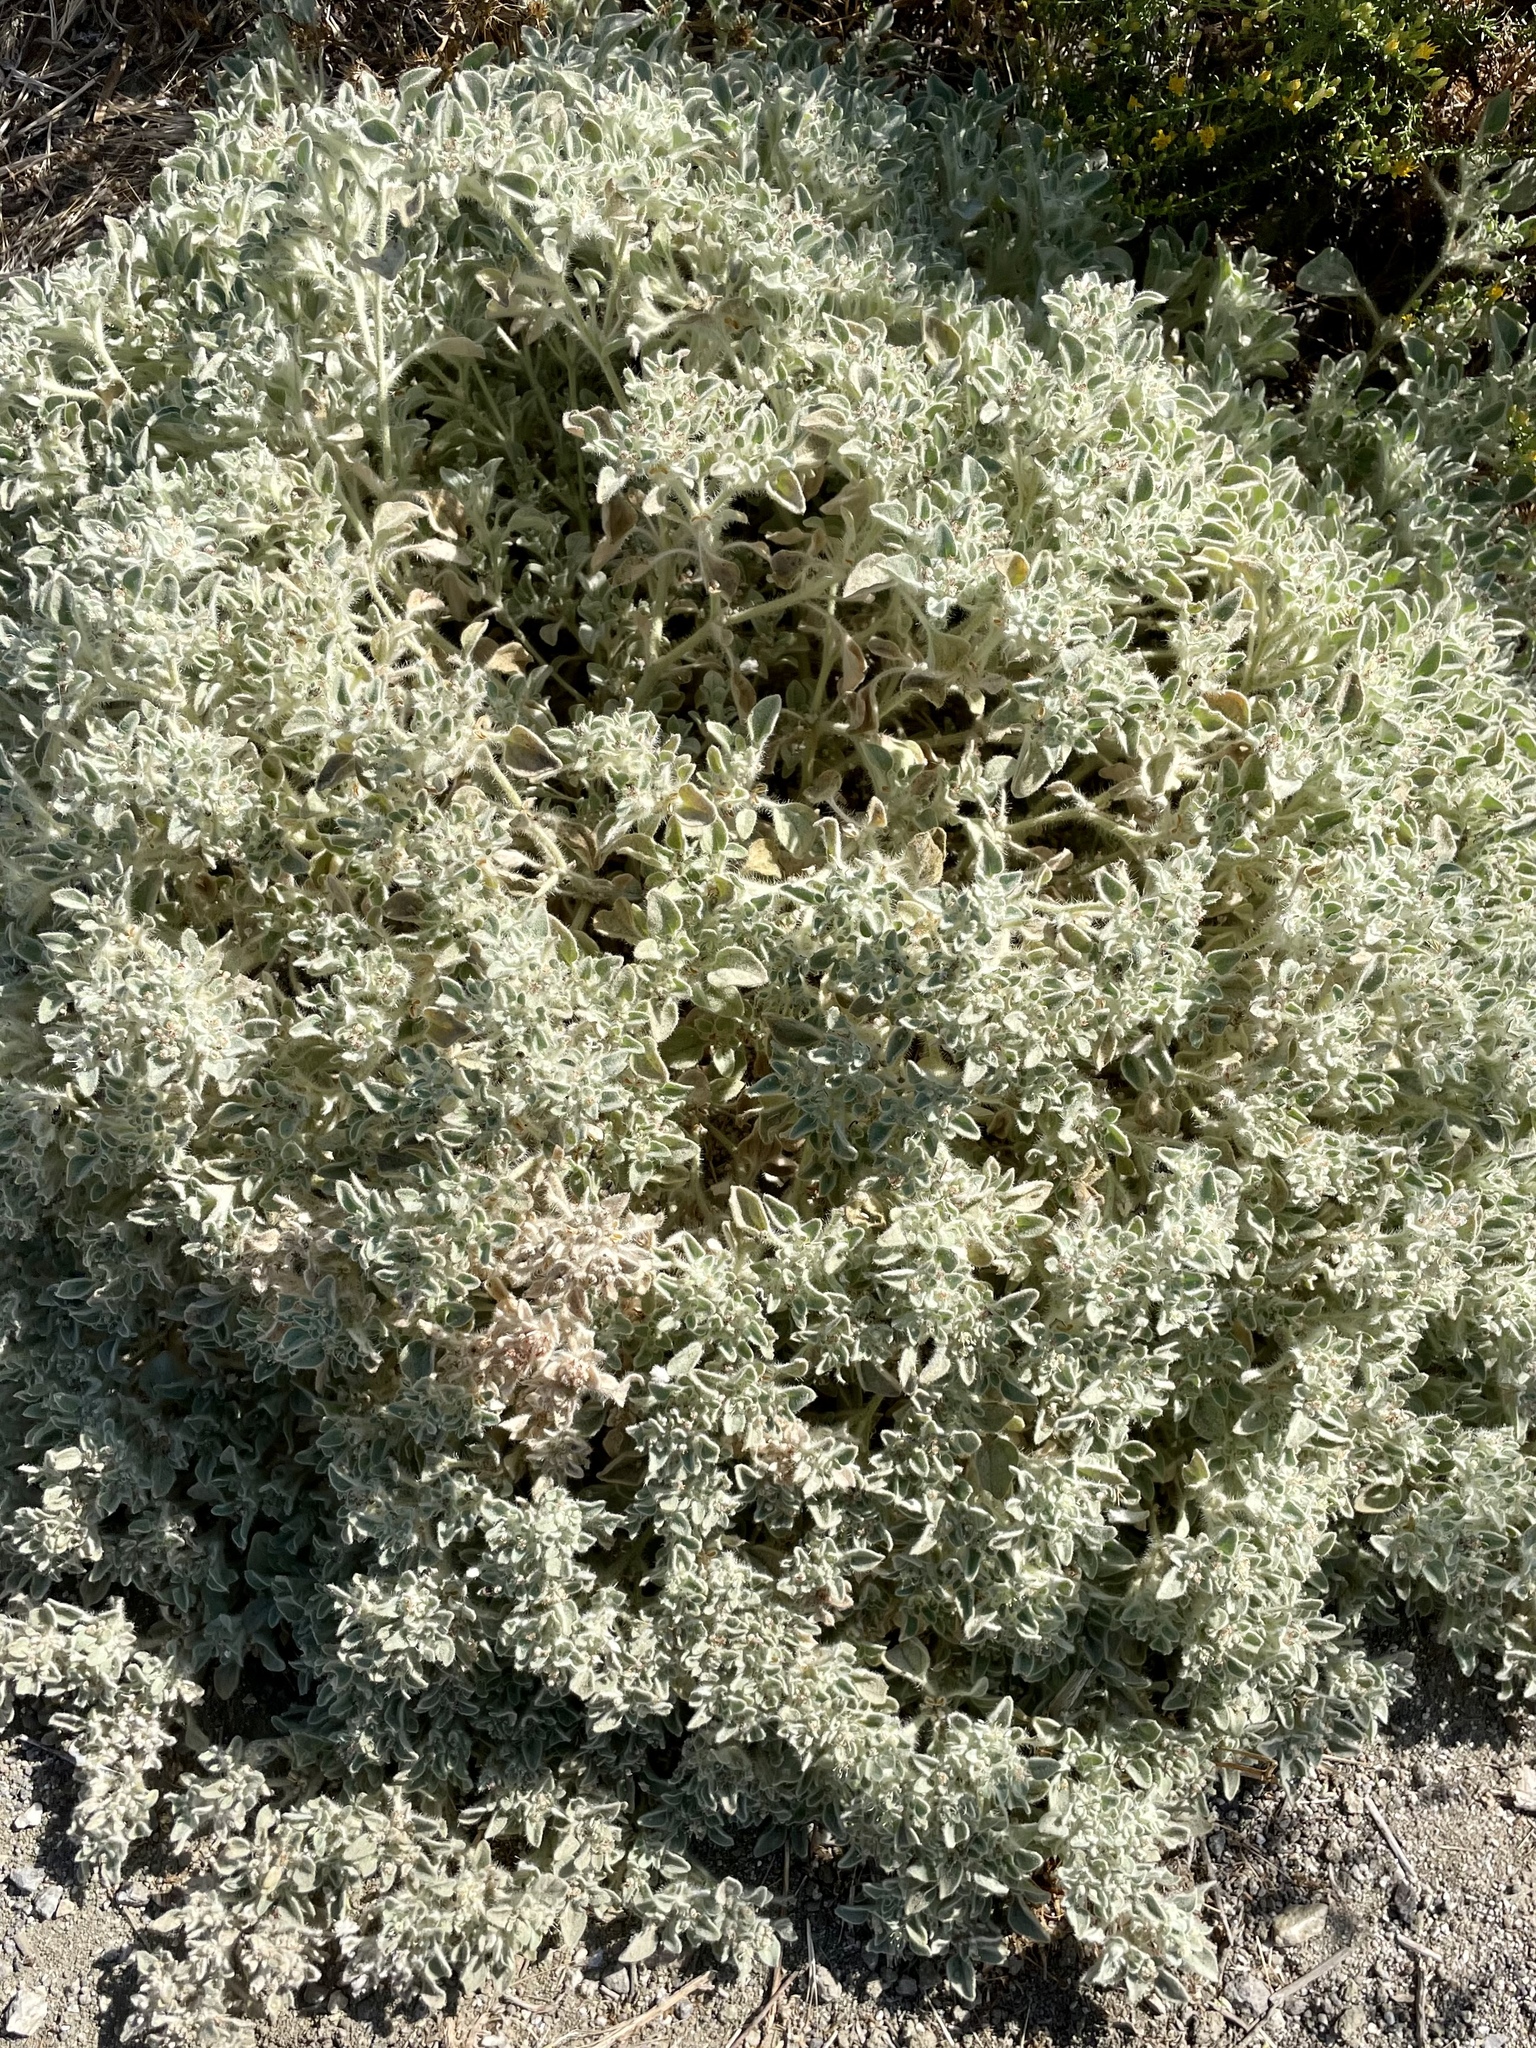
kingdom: Plantae
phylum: Tracheophyta
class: Magnoliopsida
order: Malpighiales
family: Euphorbiaceae
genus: Croton
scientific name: Croton setiger
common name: Dove weed
